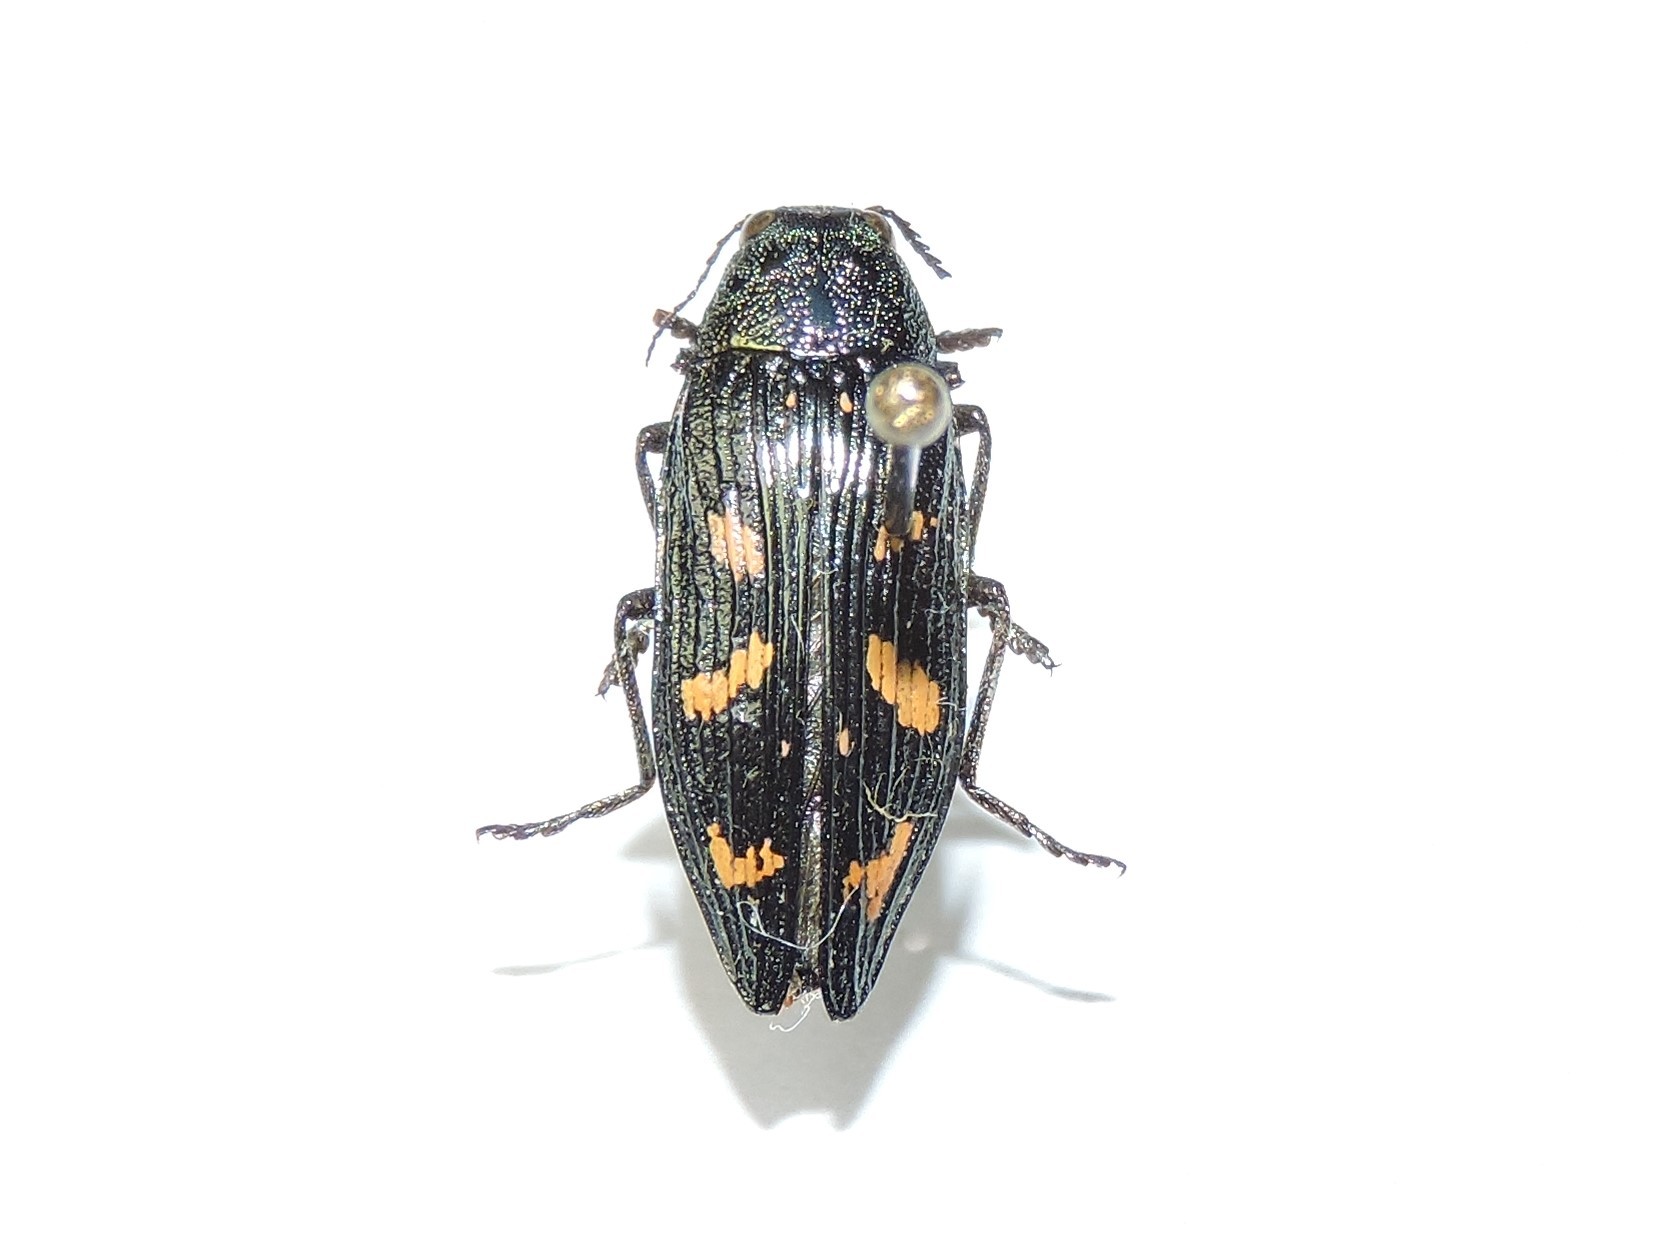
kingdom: Animalia
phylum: Arthropoda
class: Insecta
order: Coleoptera
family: Buprestidae
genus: Buprestis
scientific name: Buprestis strigosa
